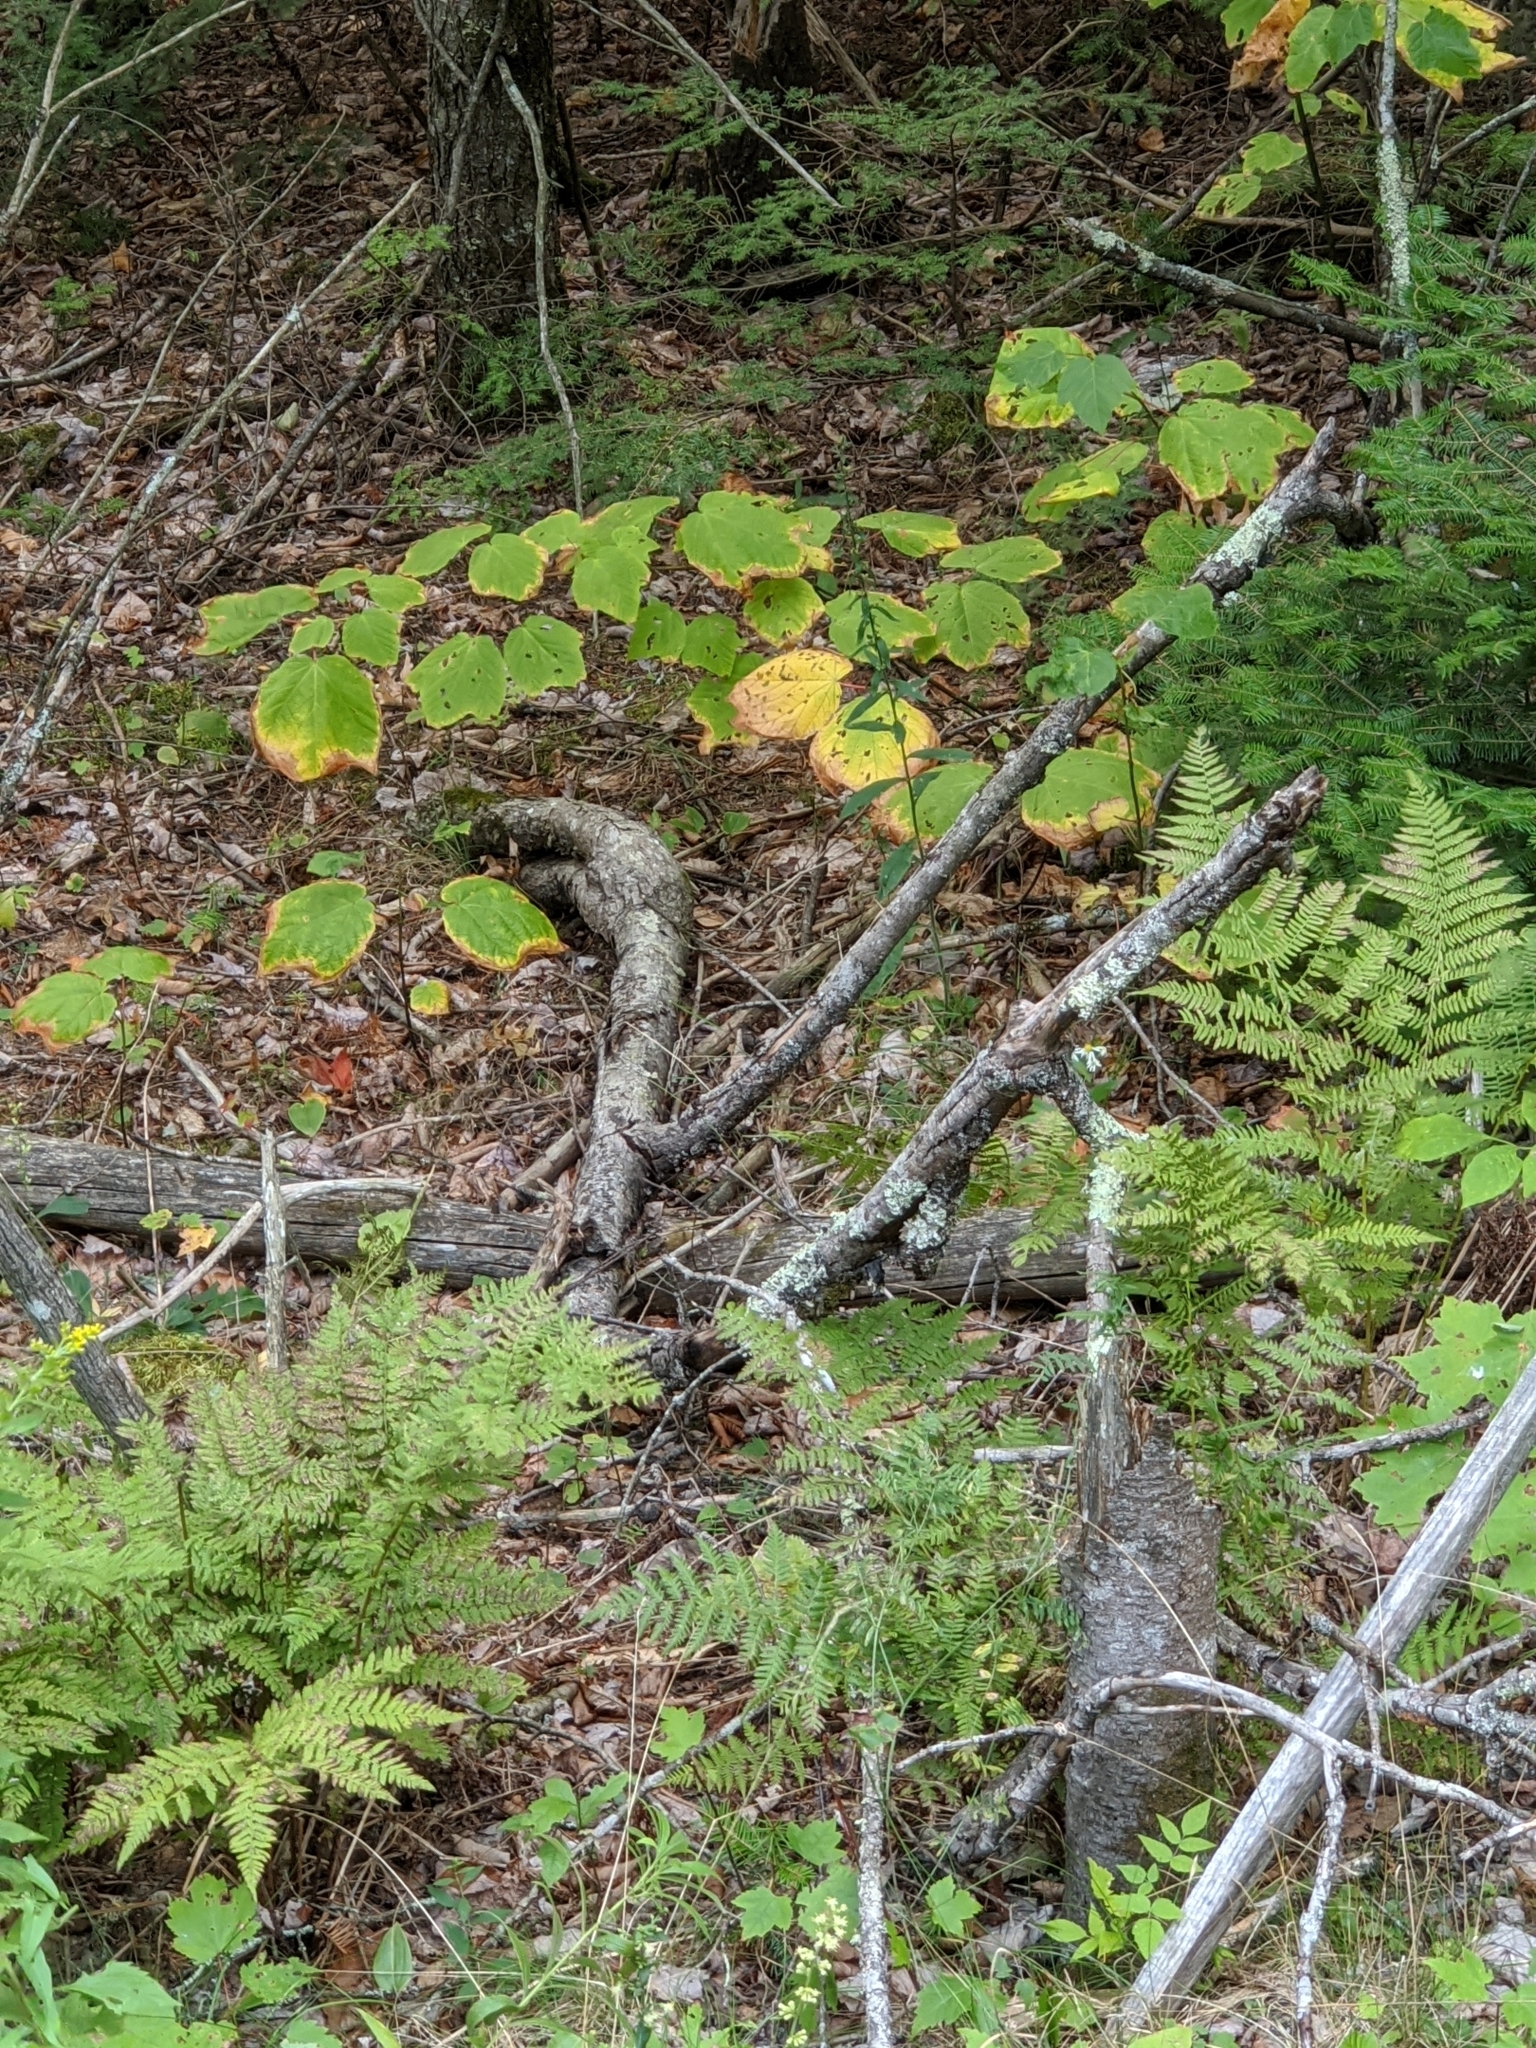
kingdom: Plantae
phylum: Tracheophyta
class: Magnoliopsida
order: Sapindales
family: Sapindaceae
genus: Acer
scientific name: Acer pensylvanicum
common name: Moosewood
